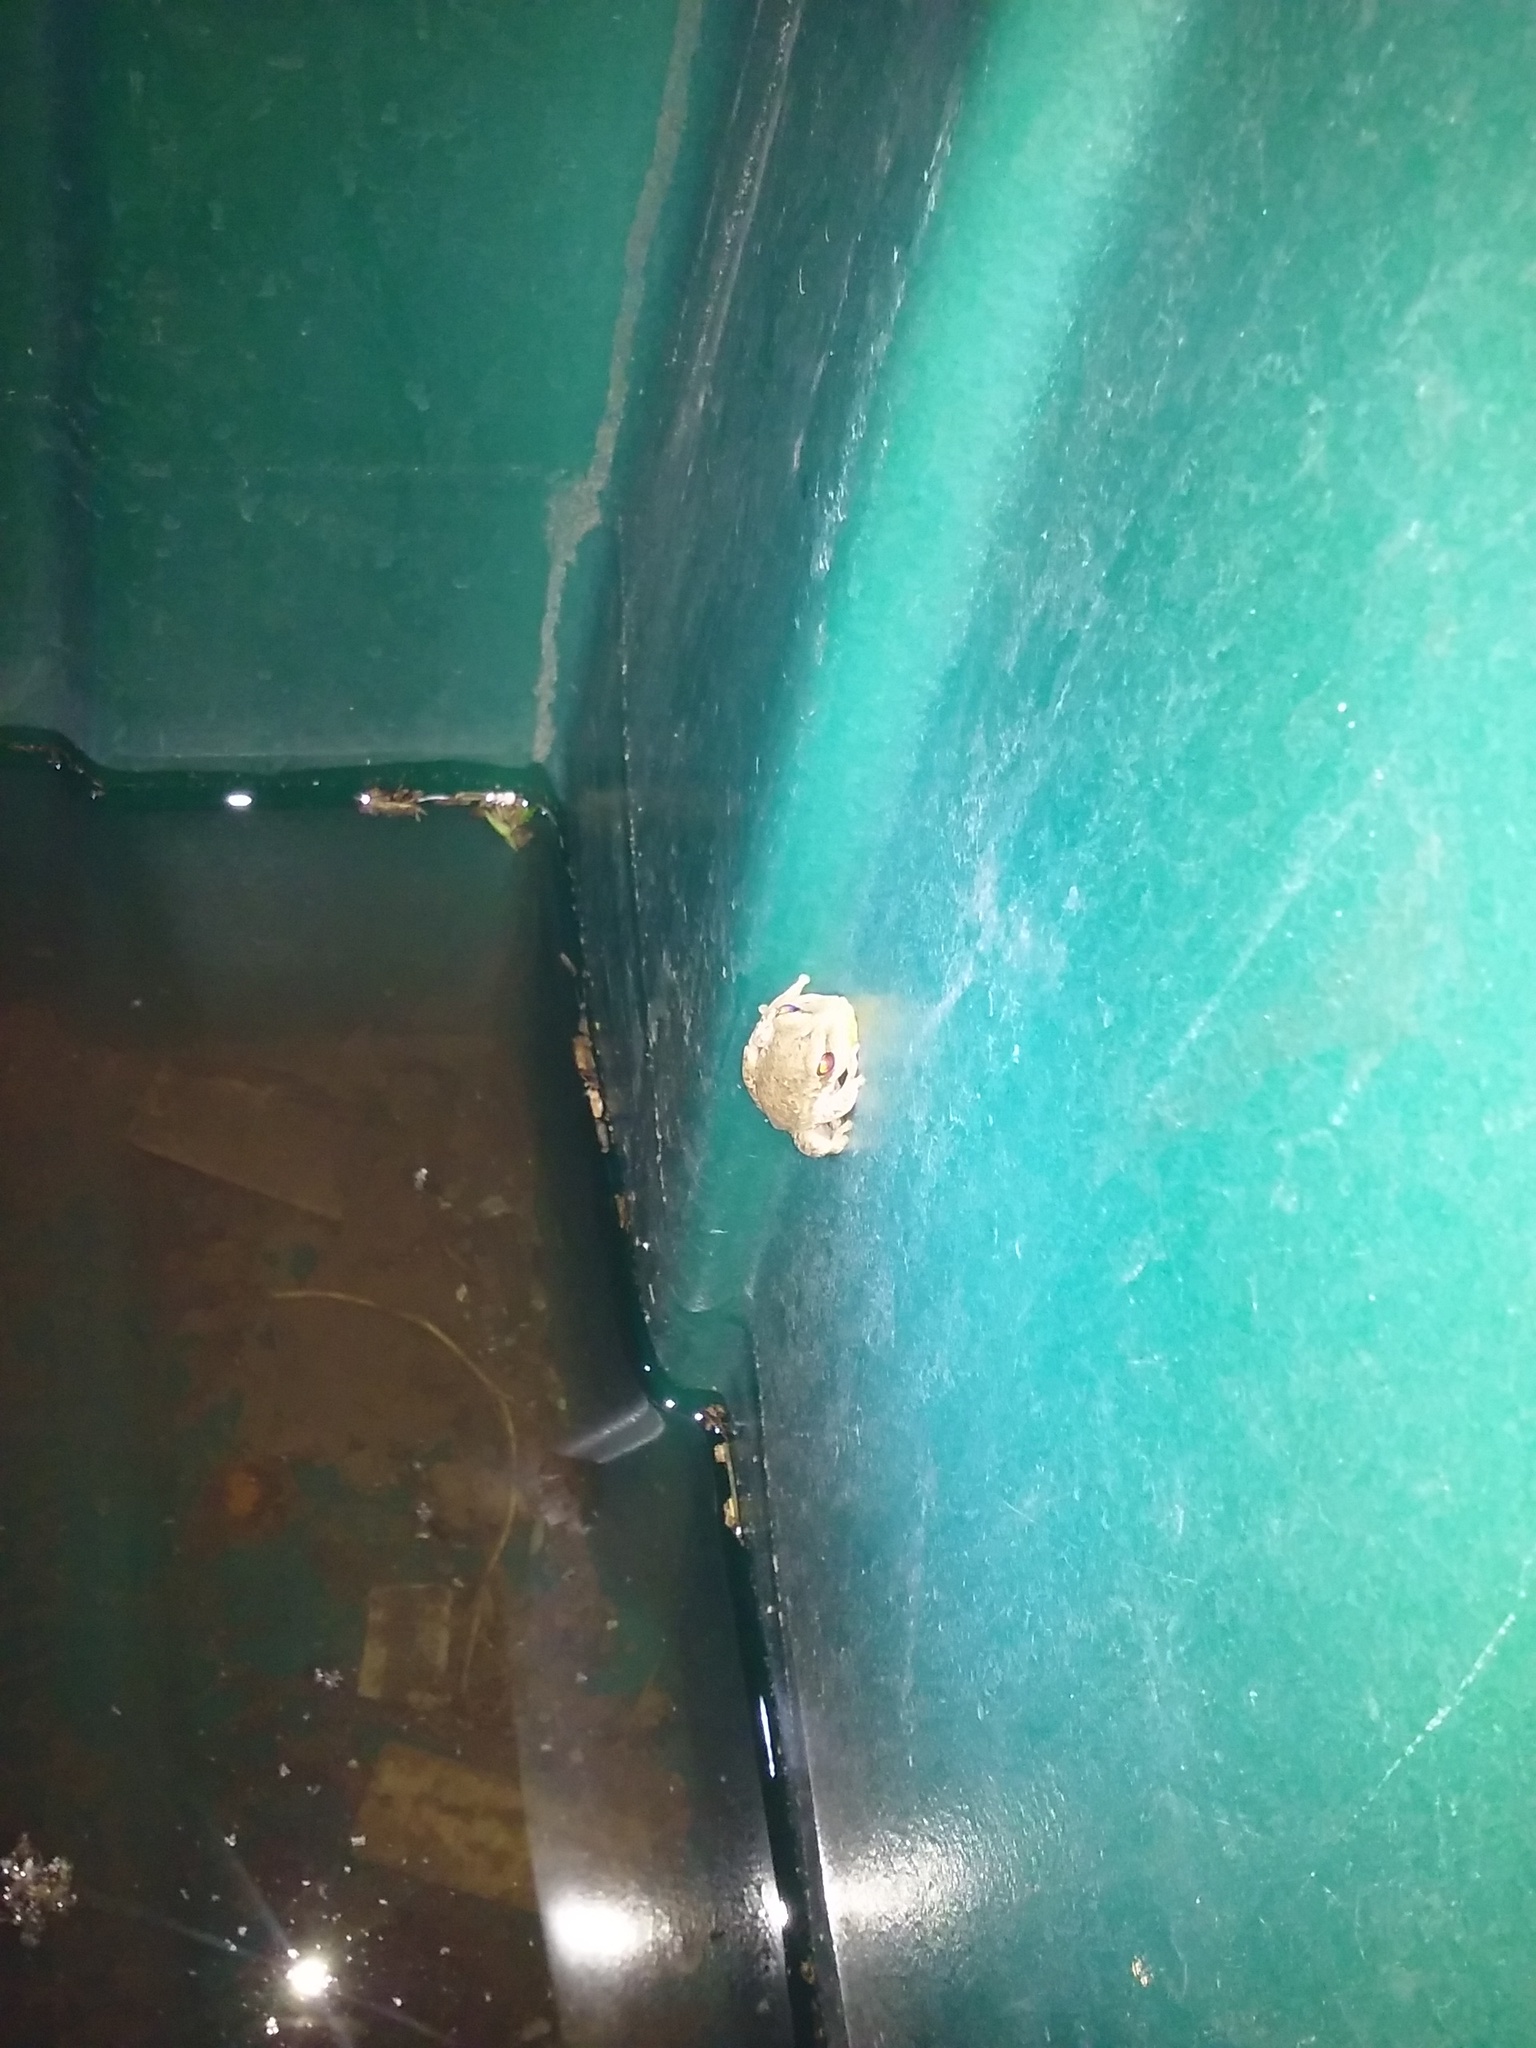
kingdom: Animalia
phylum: Chordata
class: Amphibia
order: Anura
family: Hylidae
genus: Boana
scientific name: Boana pulchella
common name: Montevideo treefrog
